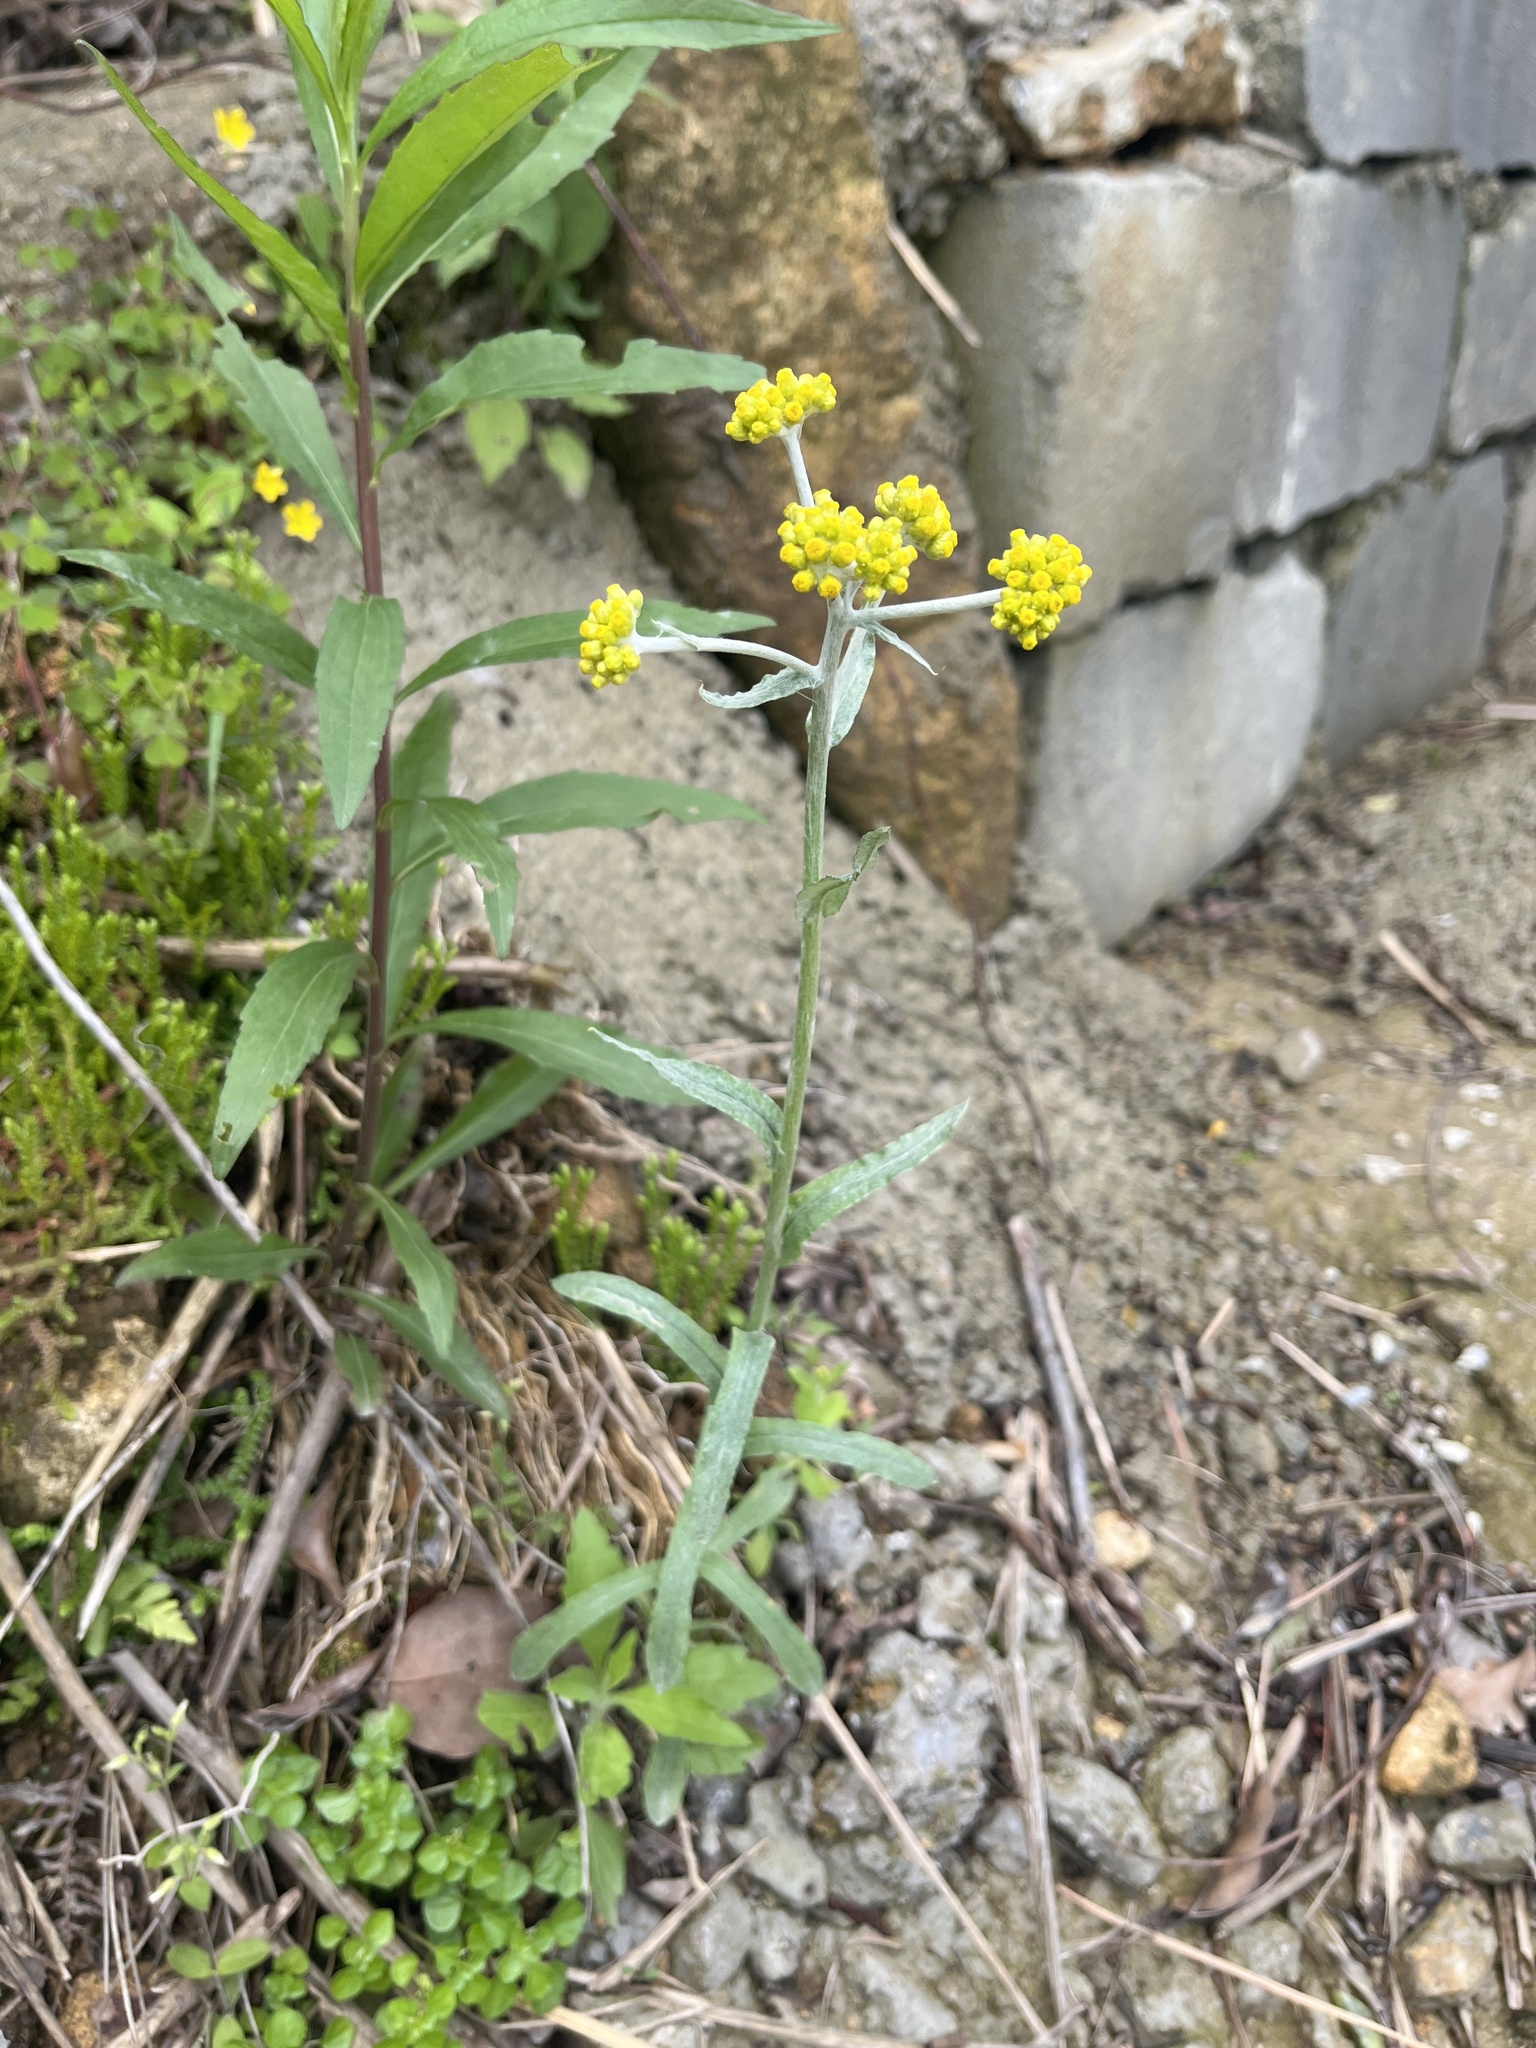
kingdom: Plantae
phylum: Tracheophyta
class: Magnoliopsida
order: Asterales
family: Asteraceae
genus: Pseudognaphalium
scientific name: Pseudognaphalium affine
